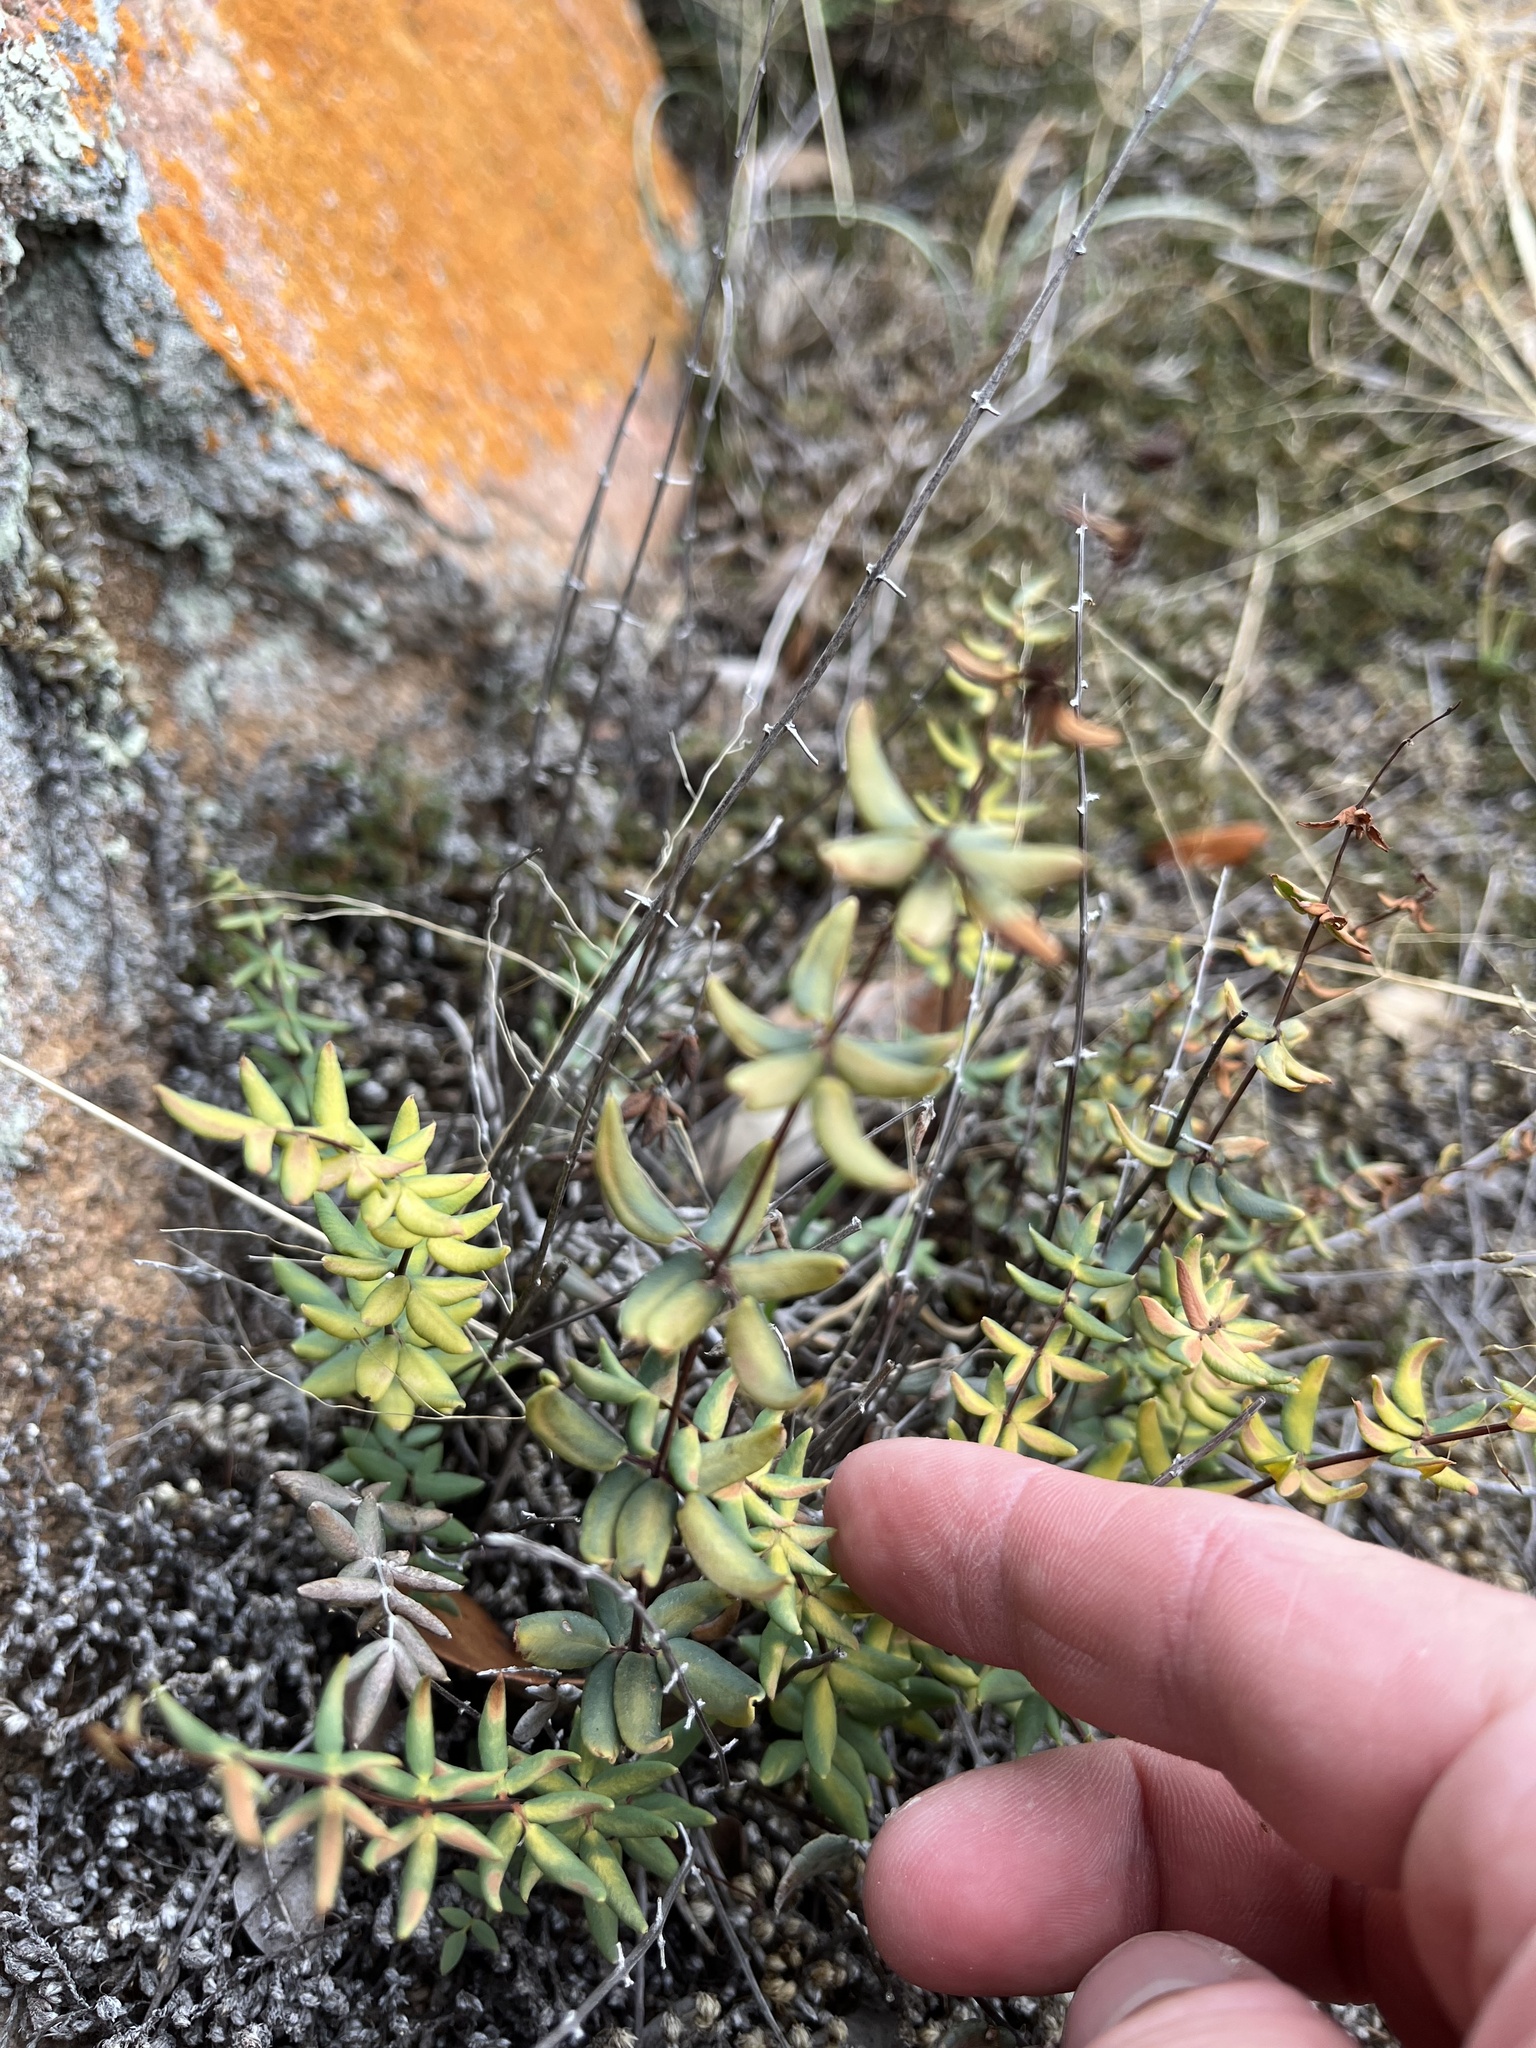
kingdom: Plantae
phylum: Tracheophyta
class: Polypodiopsida
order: Polypodiales
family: Pteridaceae
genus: Pellaea
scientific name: Pellaea wrightiana
